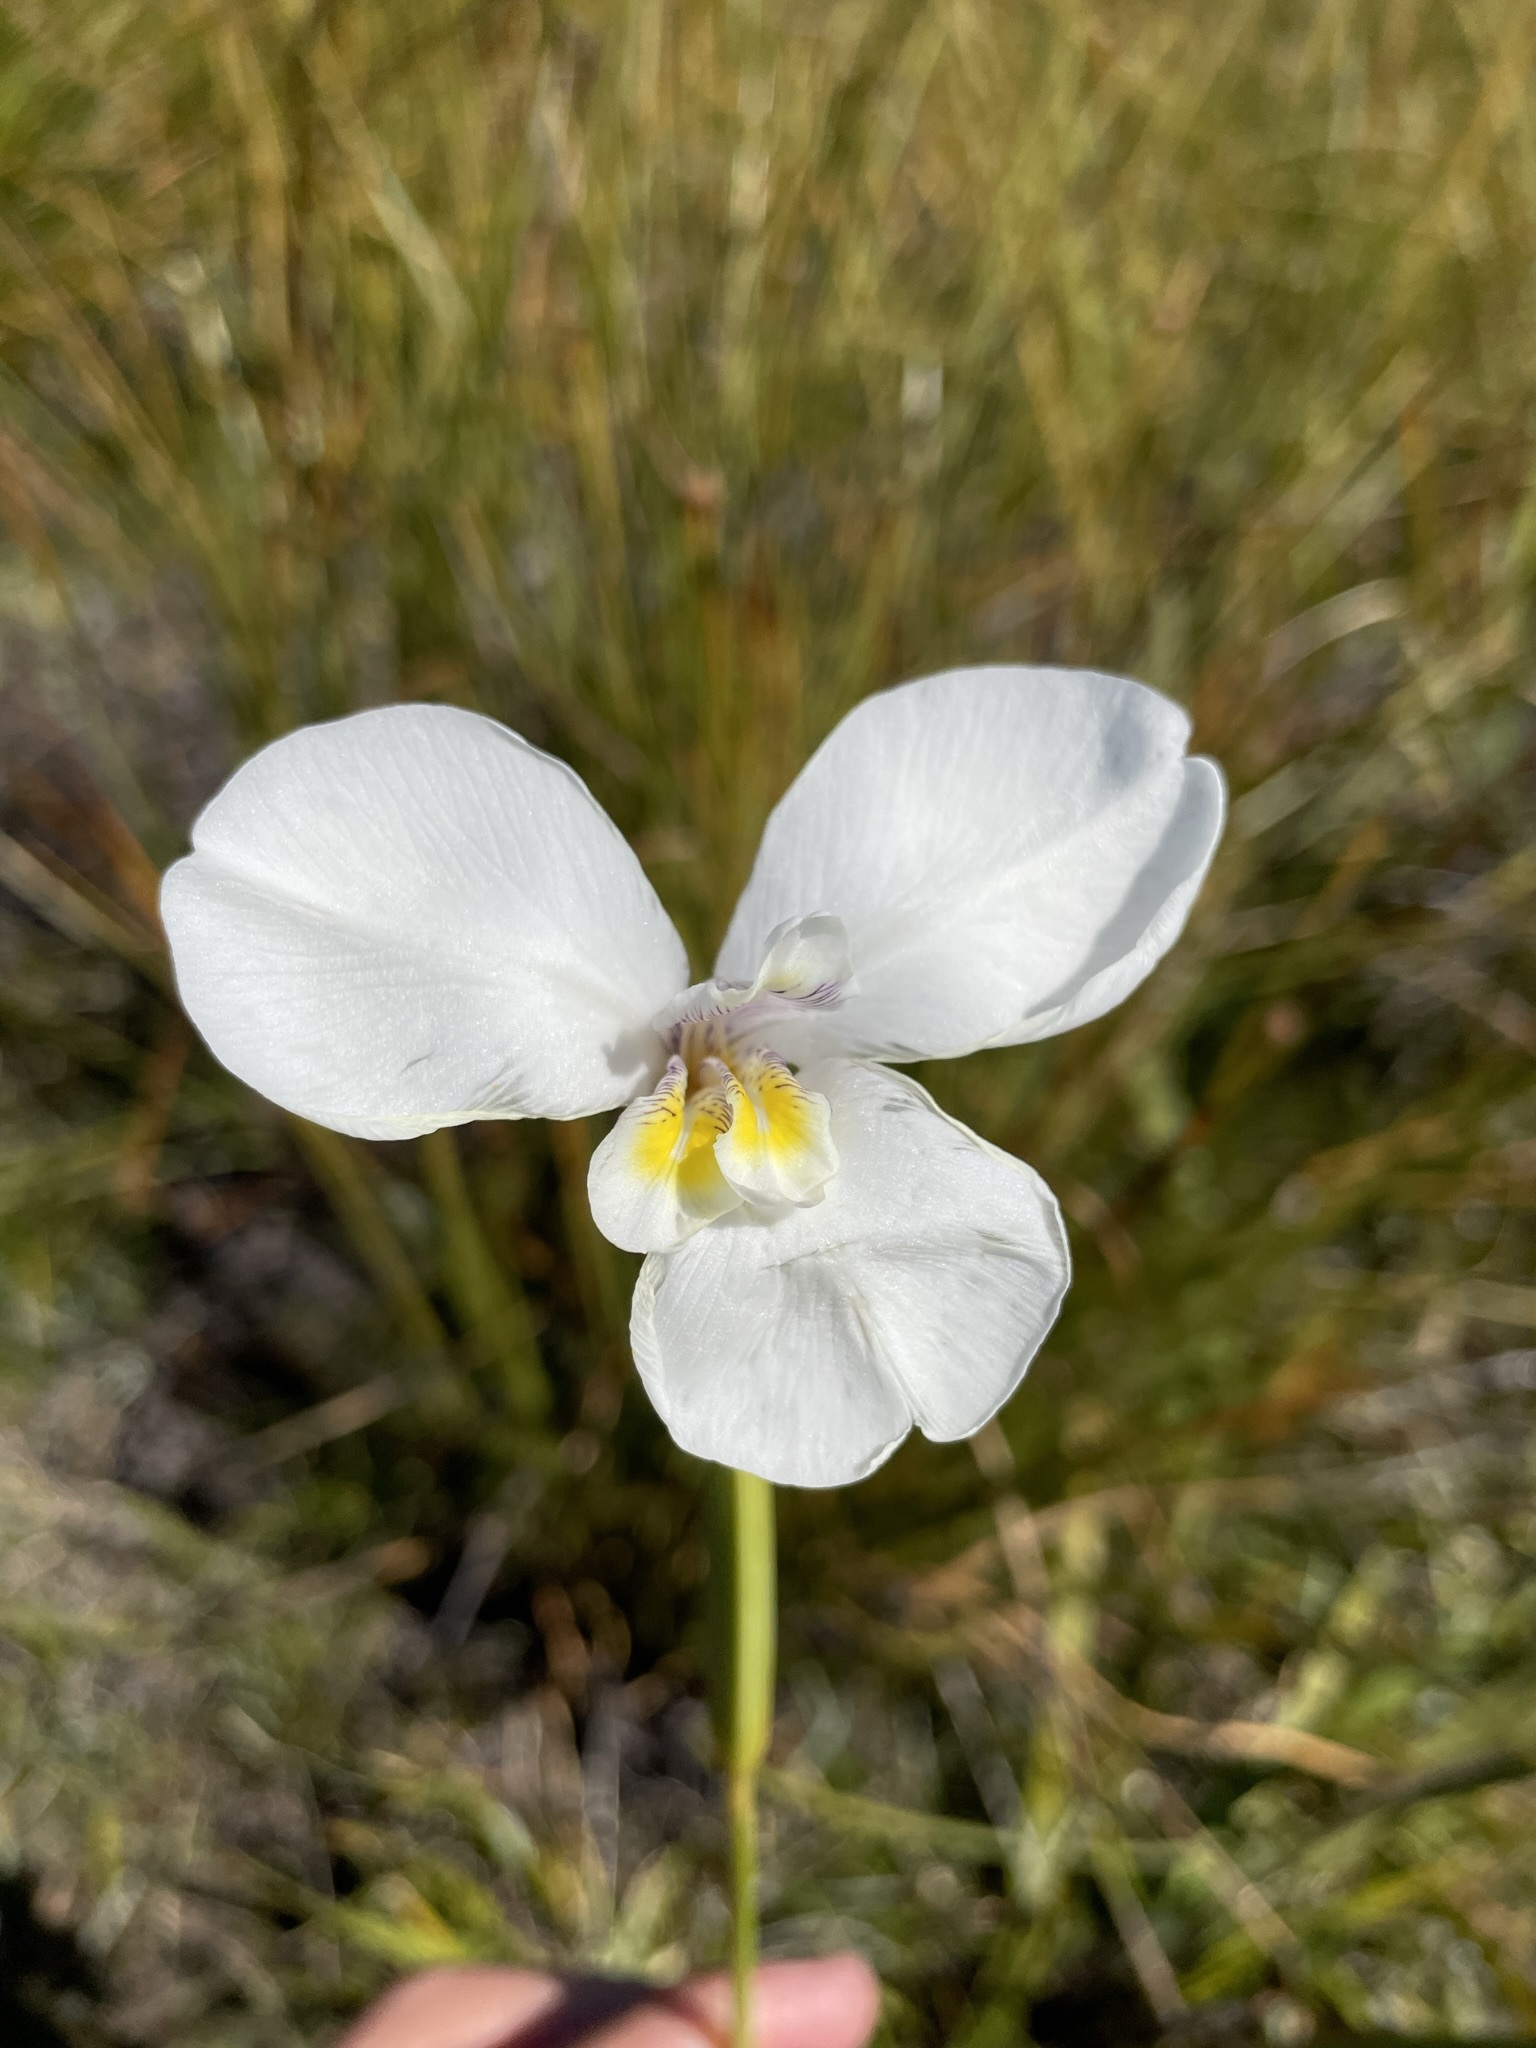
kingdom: Plantae
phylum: Tracheophyta
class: Liliopsida
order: Asparagales
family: Iridaceae
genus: Diplarrena
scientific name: Diplarrena latifolia
